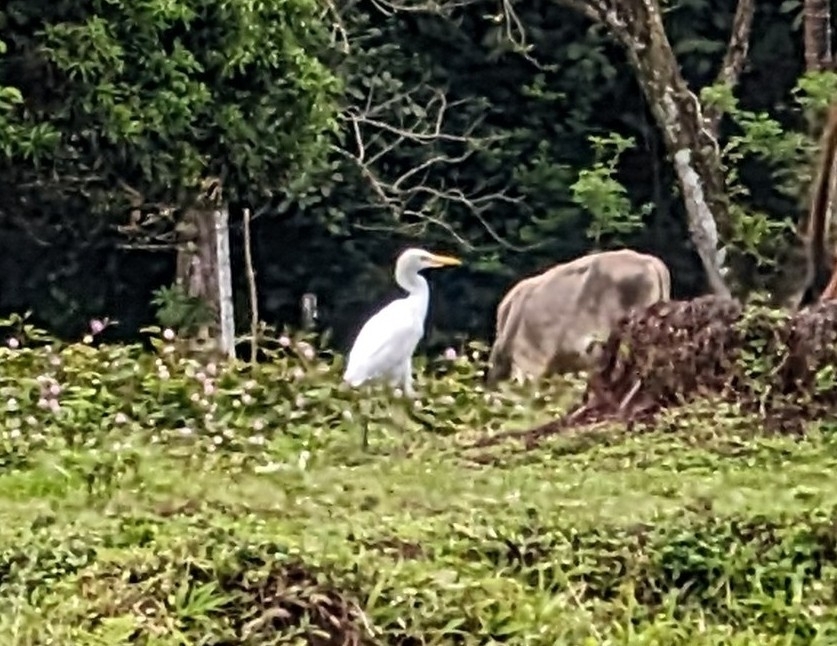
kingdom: Animalia
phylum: Chordata
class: Aves
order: Pelecaniformes
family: Ardeidae
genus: Bubulcus
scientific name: Bubulcus ibis
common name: Cattle egret
